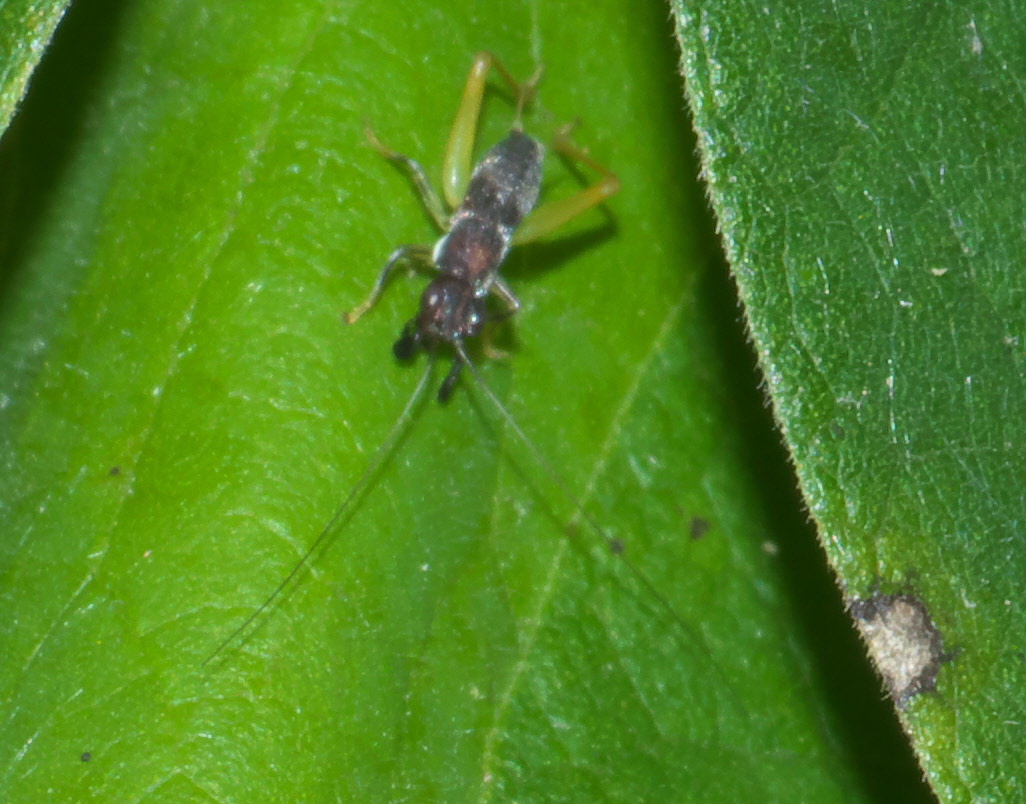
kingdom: Animalia
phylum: Arthropoda
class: Insecta
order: Orthoptera
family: Trigonidiidae
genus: Phyllopalpus
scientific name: Phyllopalpus pulchellus
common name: Handsome trig
